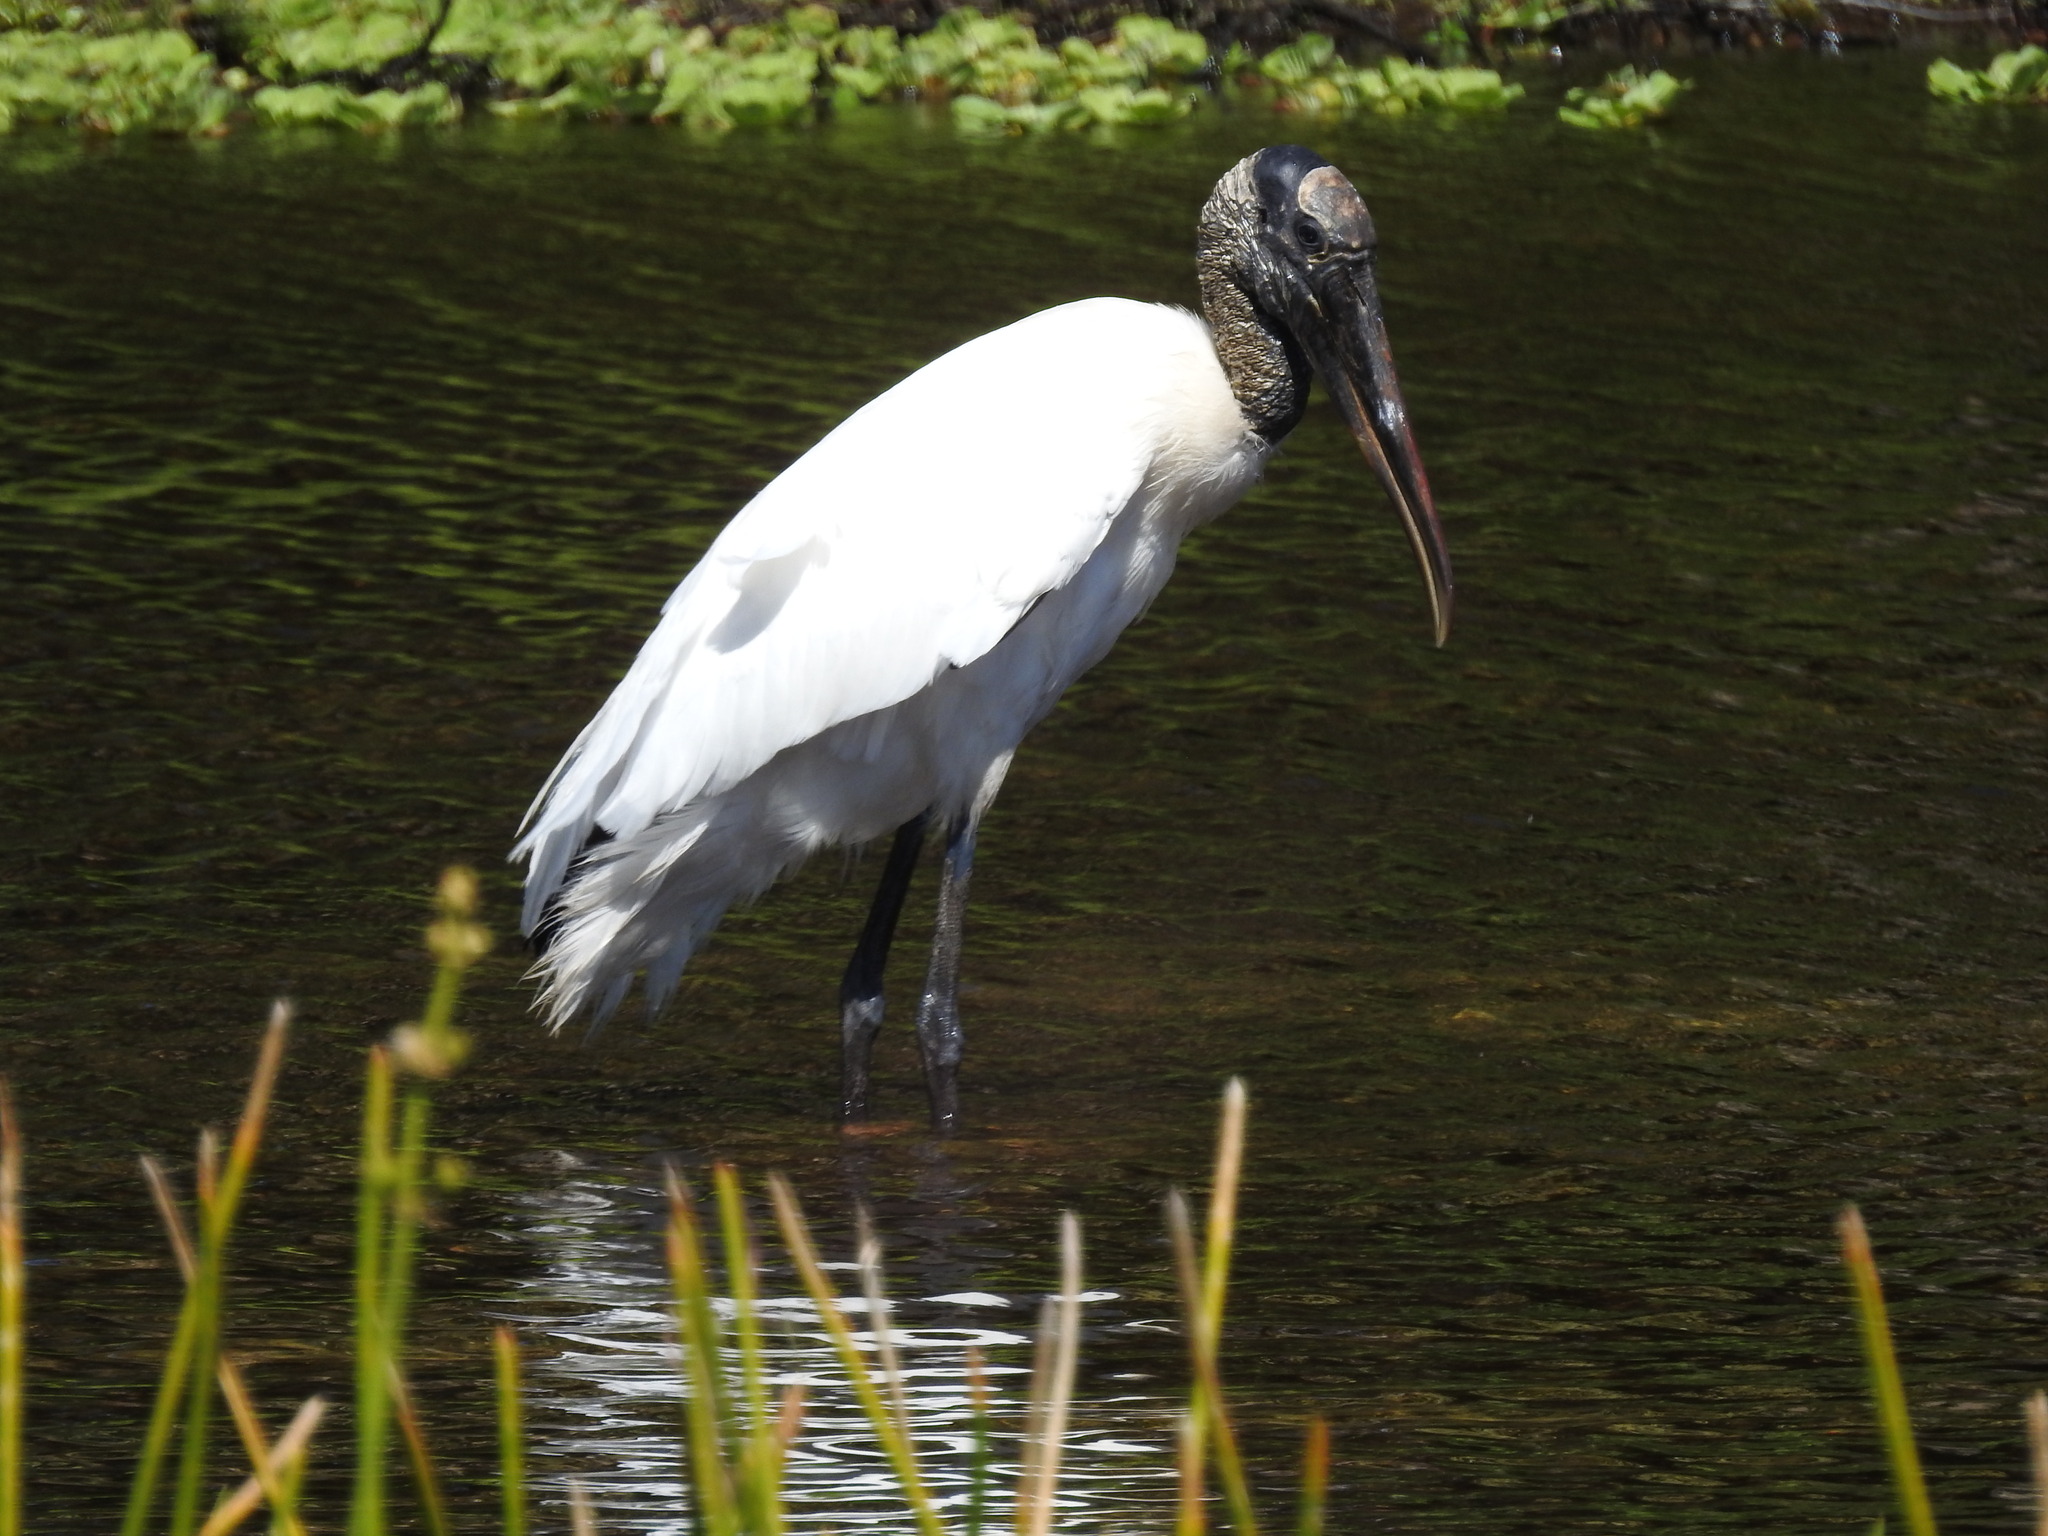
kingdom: Animalia
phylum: Chordata
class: Aves
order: Ciconiiformes
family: Ciconiidae
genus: Mycteria
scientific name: Mycteria americana
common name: Wood stork
